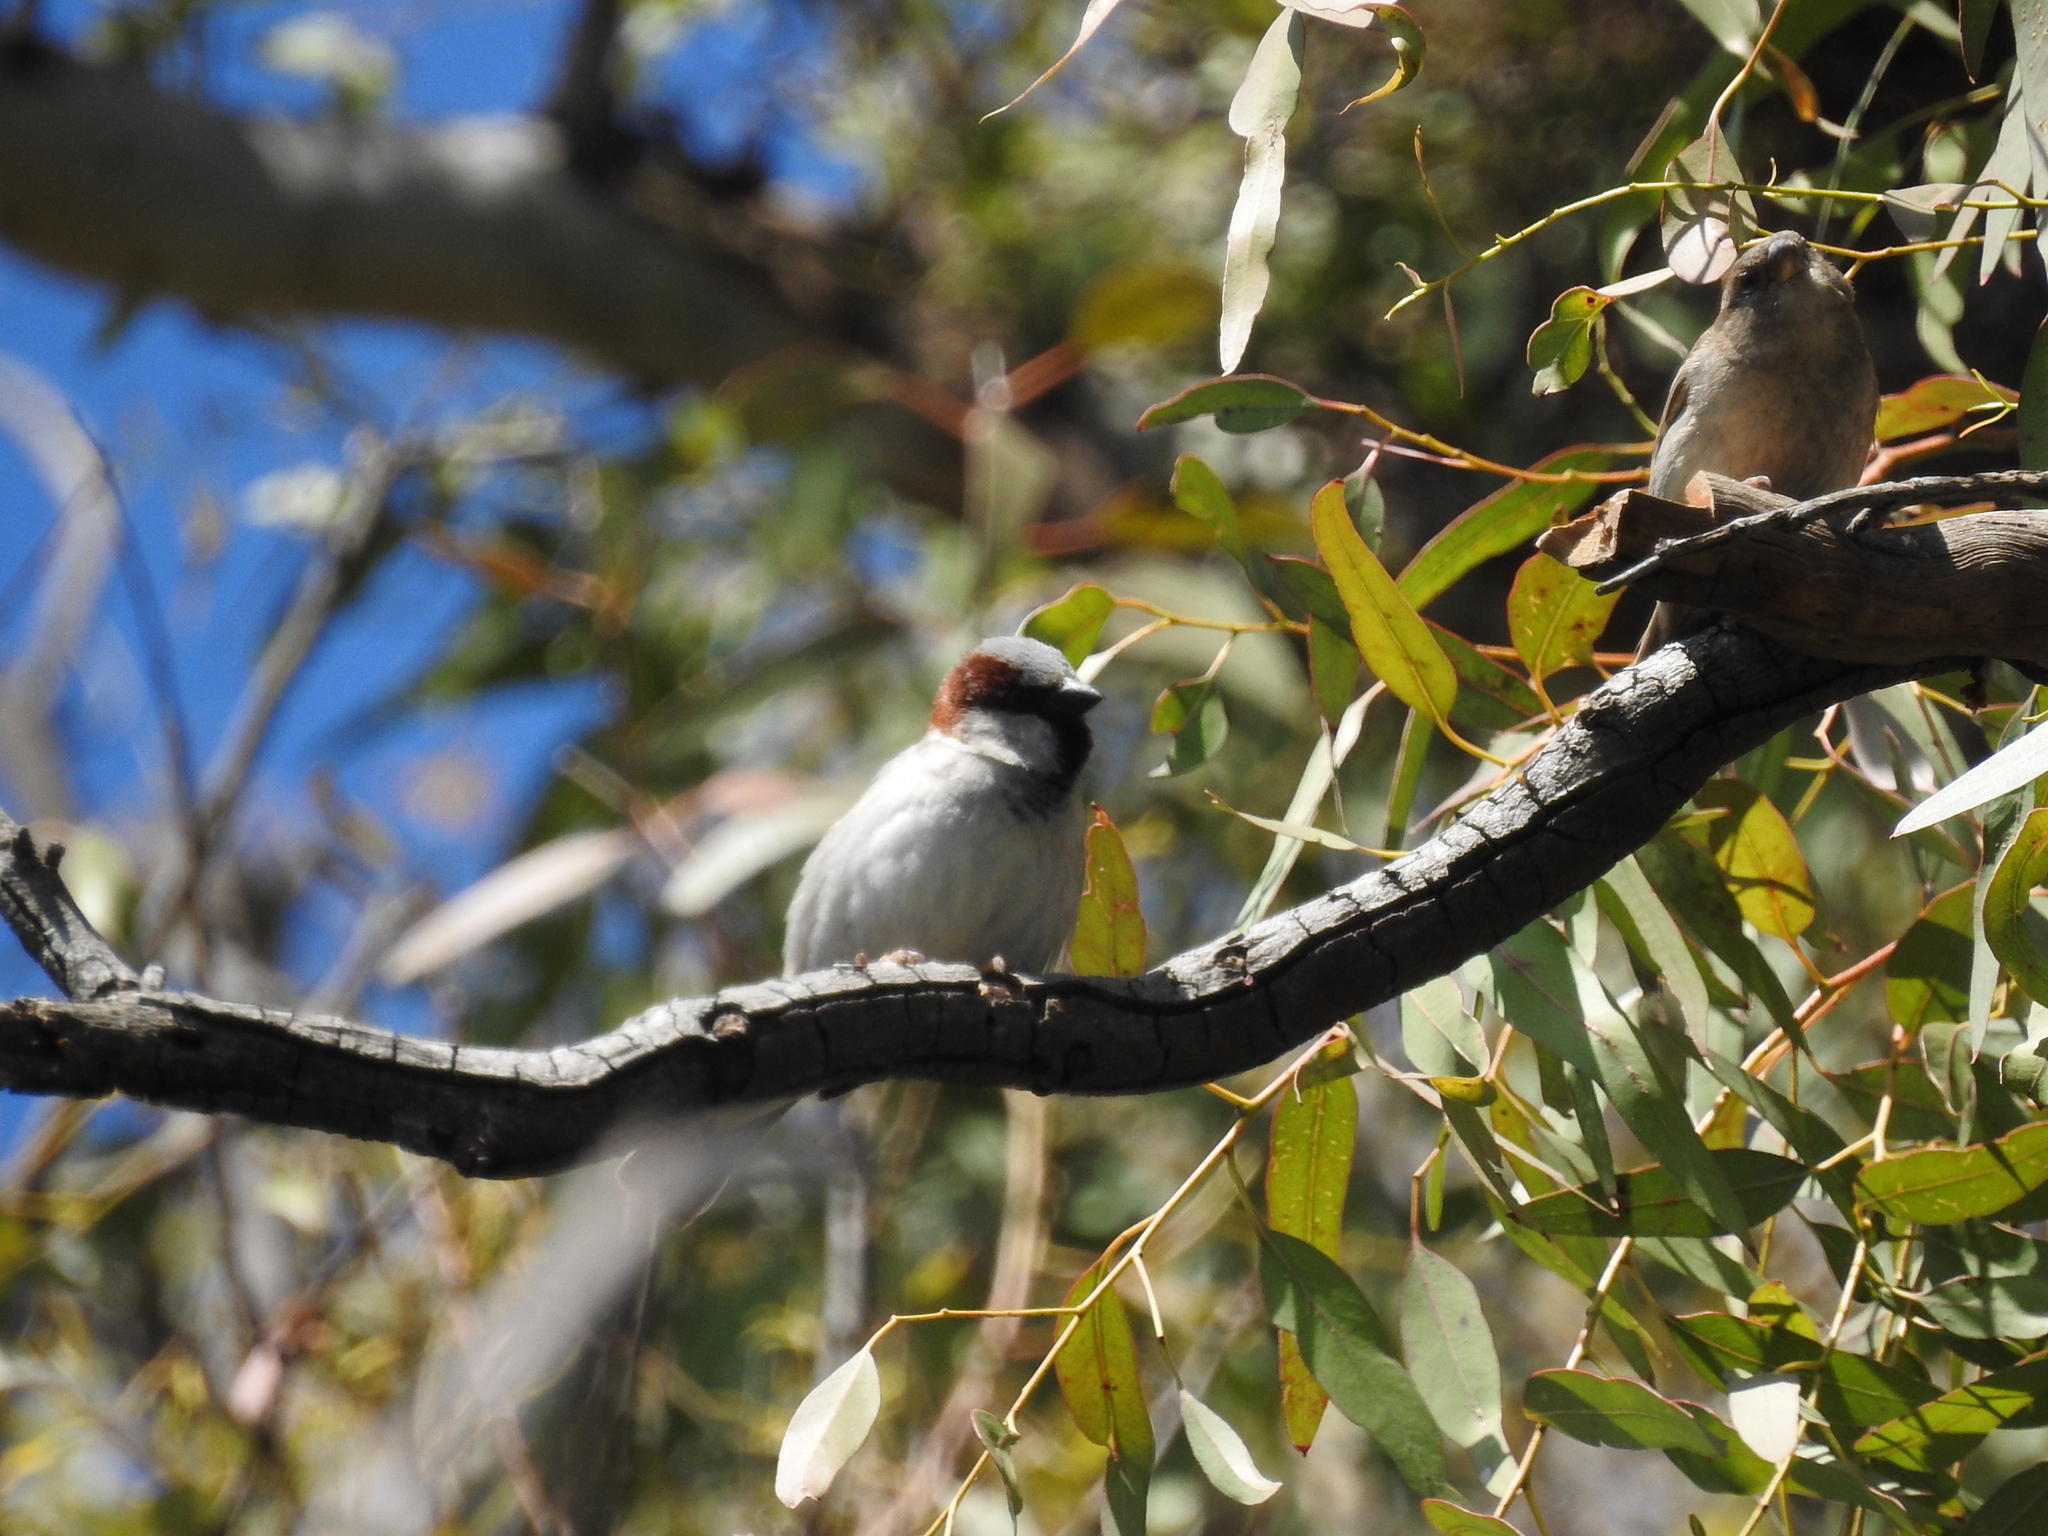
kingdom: Animalia
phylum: Chordata
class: Aves
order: Passeriformes
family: Passeridae
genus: Passer
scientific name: Passer domesticus
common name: House sparrow
